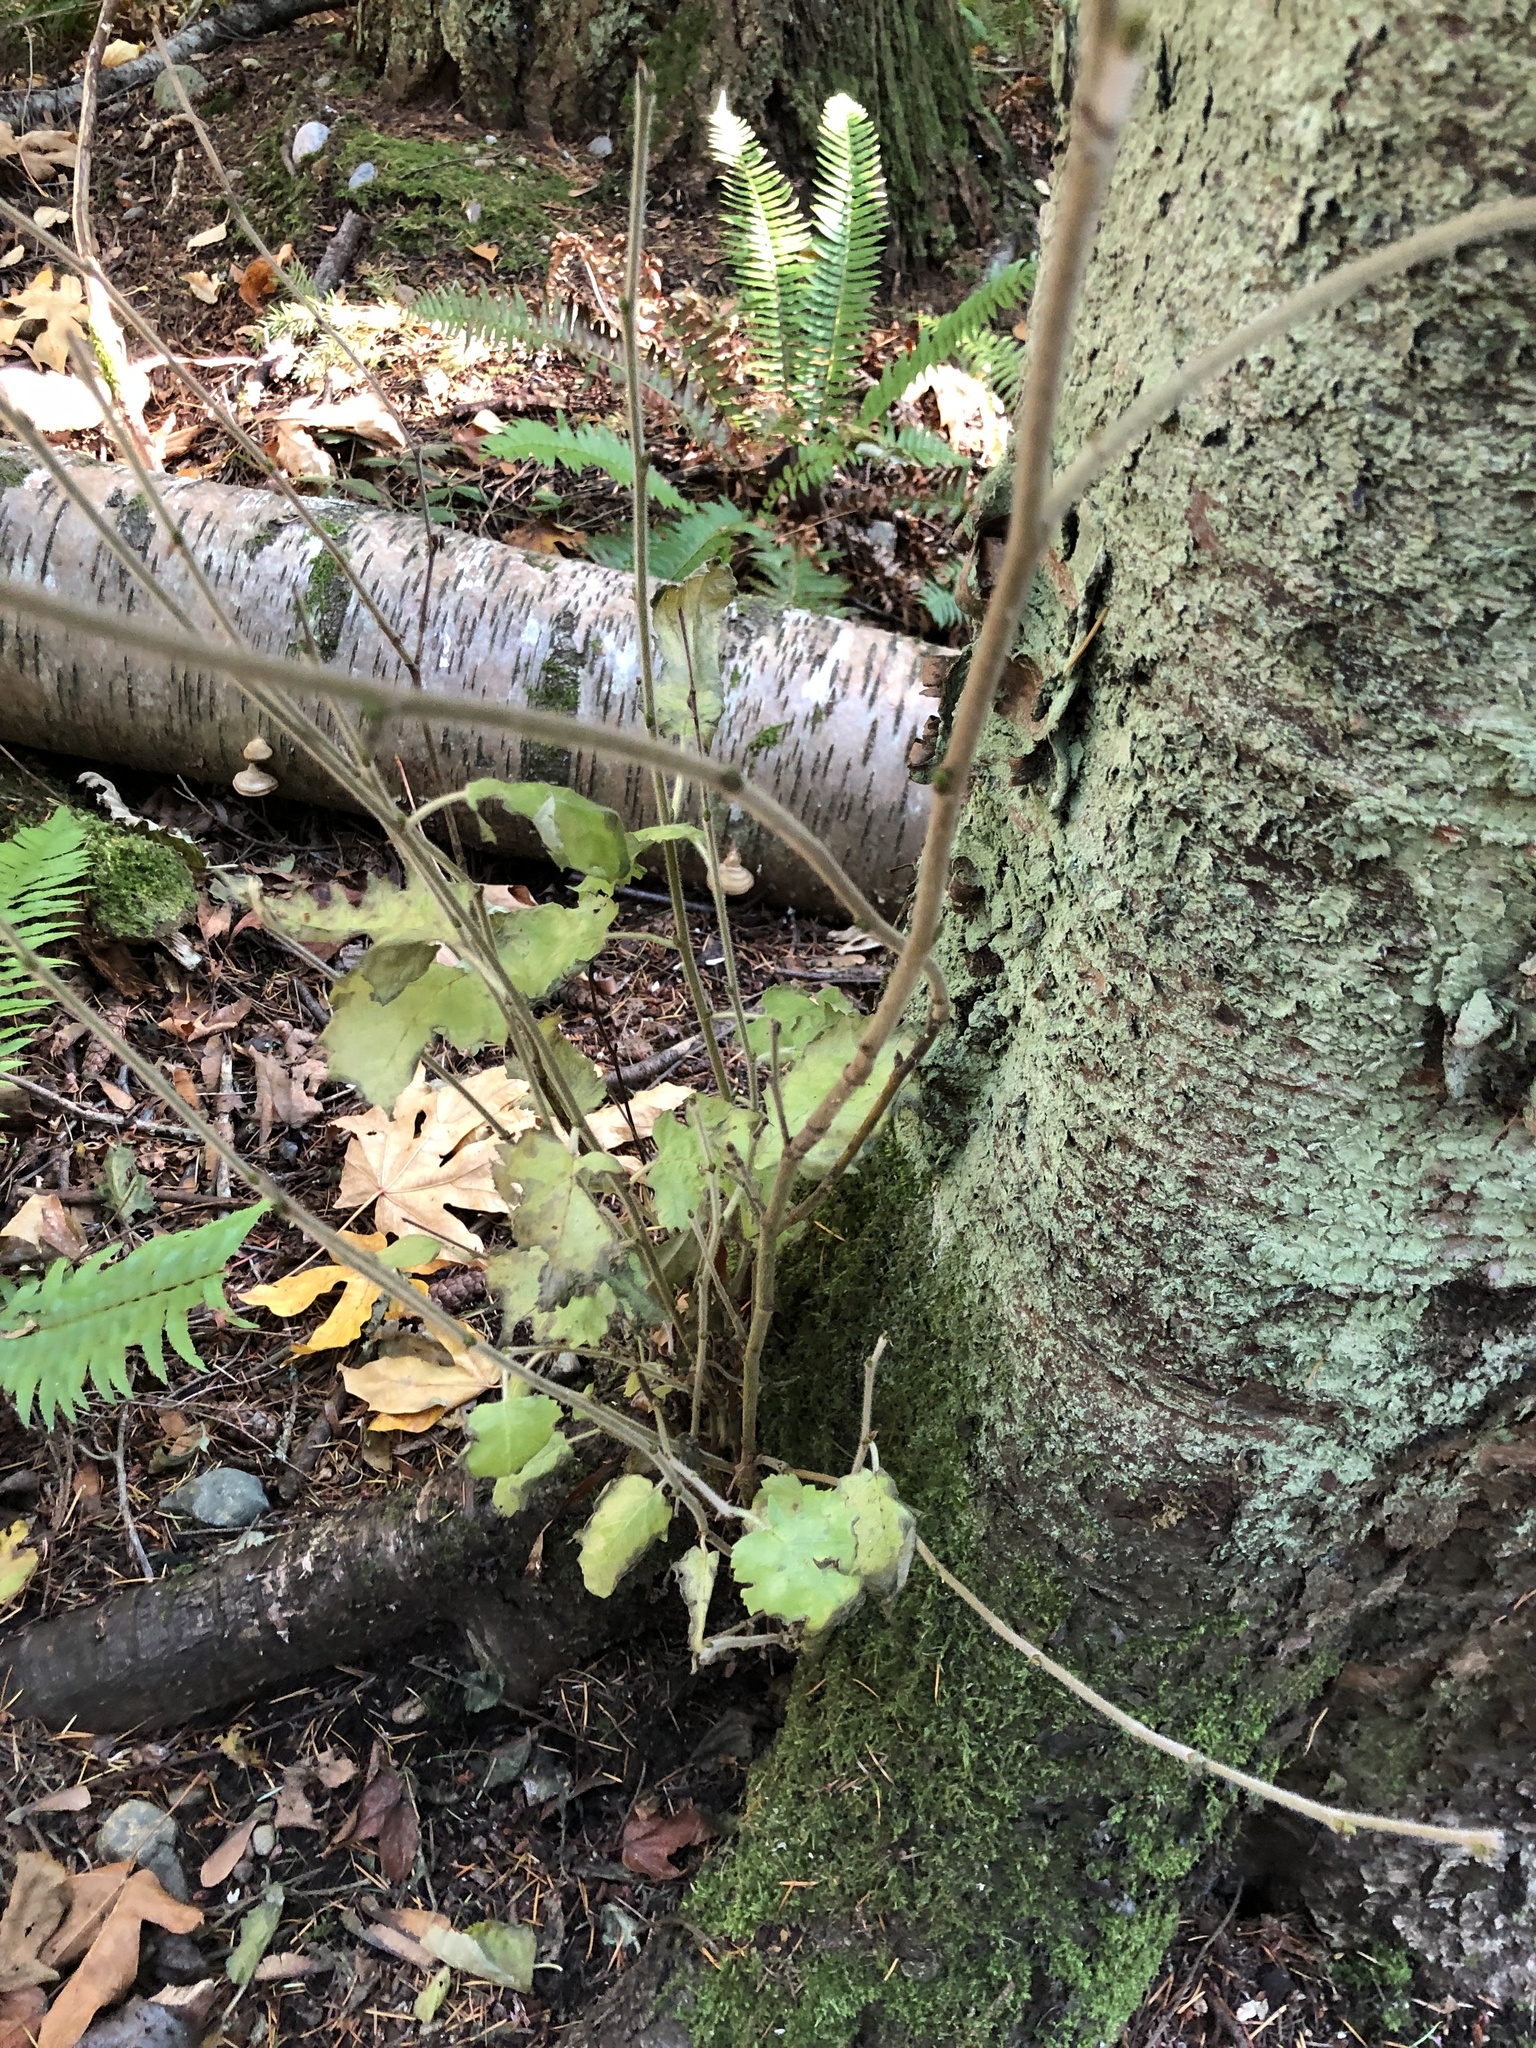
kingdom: Plantae
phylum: Tracheophyta
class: Magnoliopsida
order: Fagales
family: Betulaceae
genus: Betula
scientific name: Betula papyrifera
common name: Paper birch
